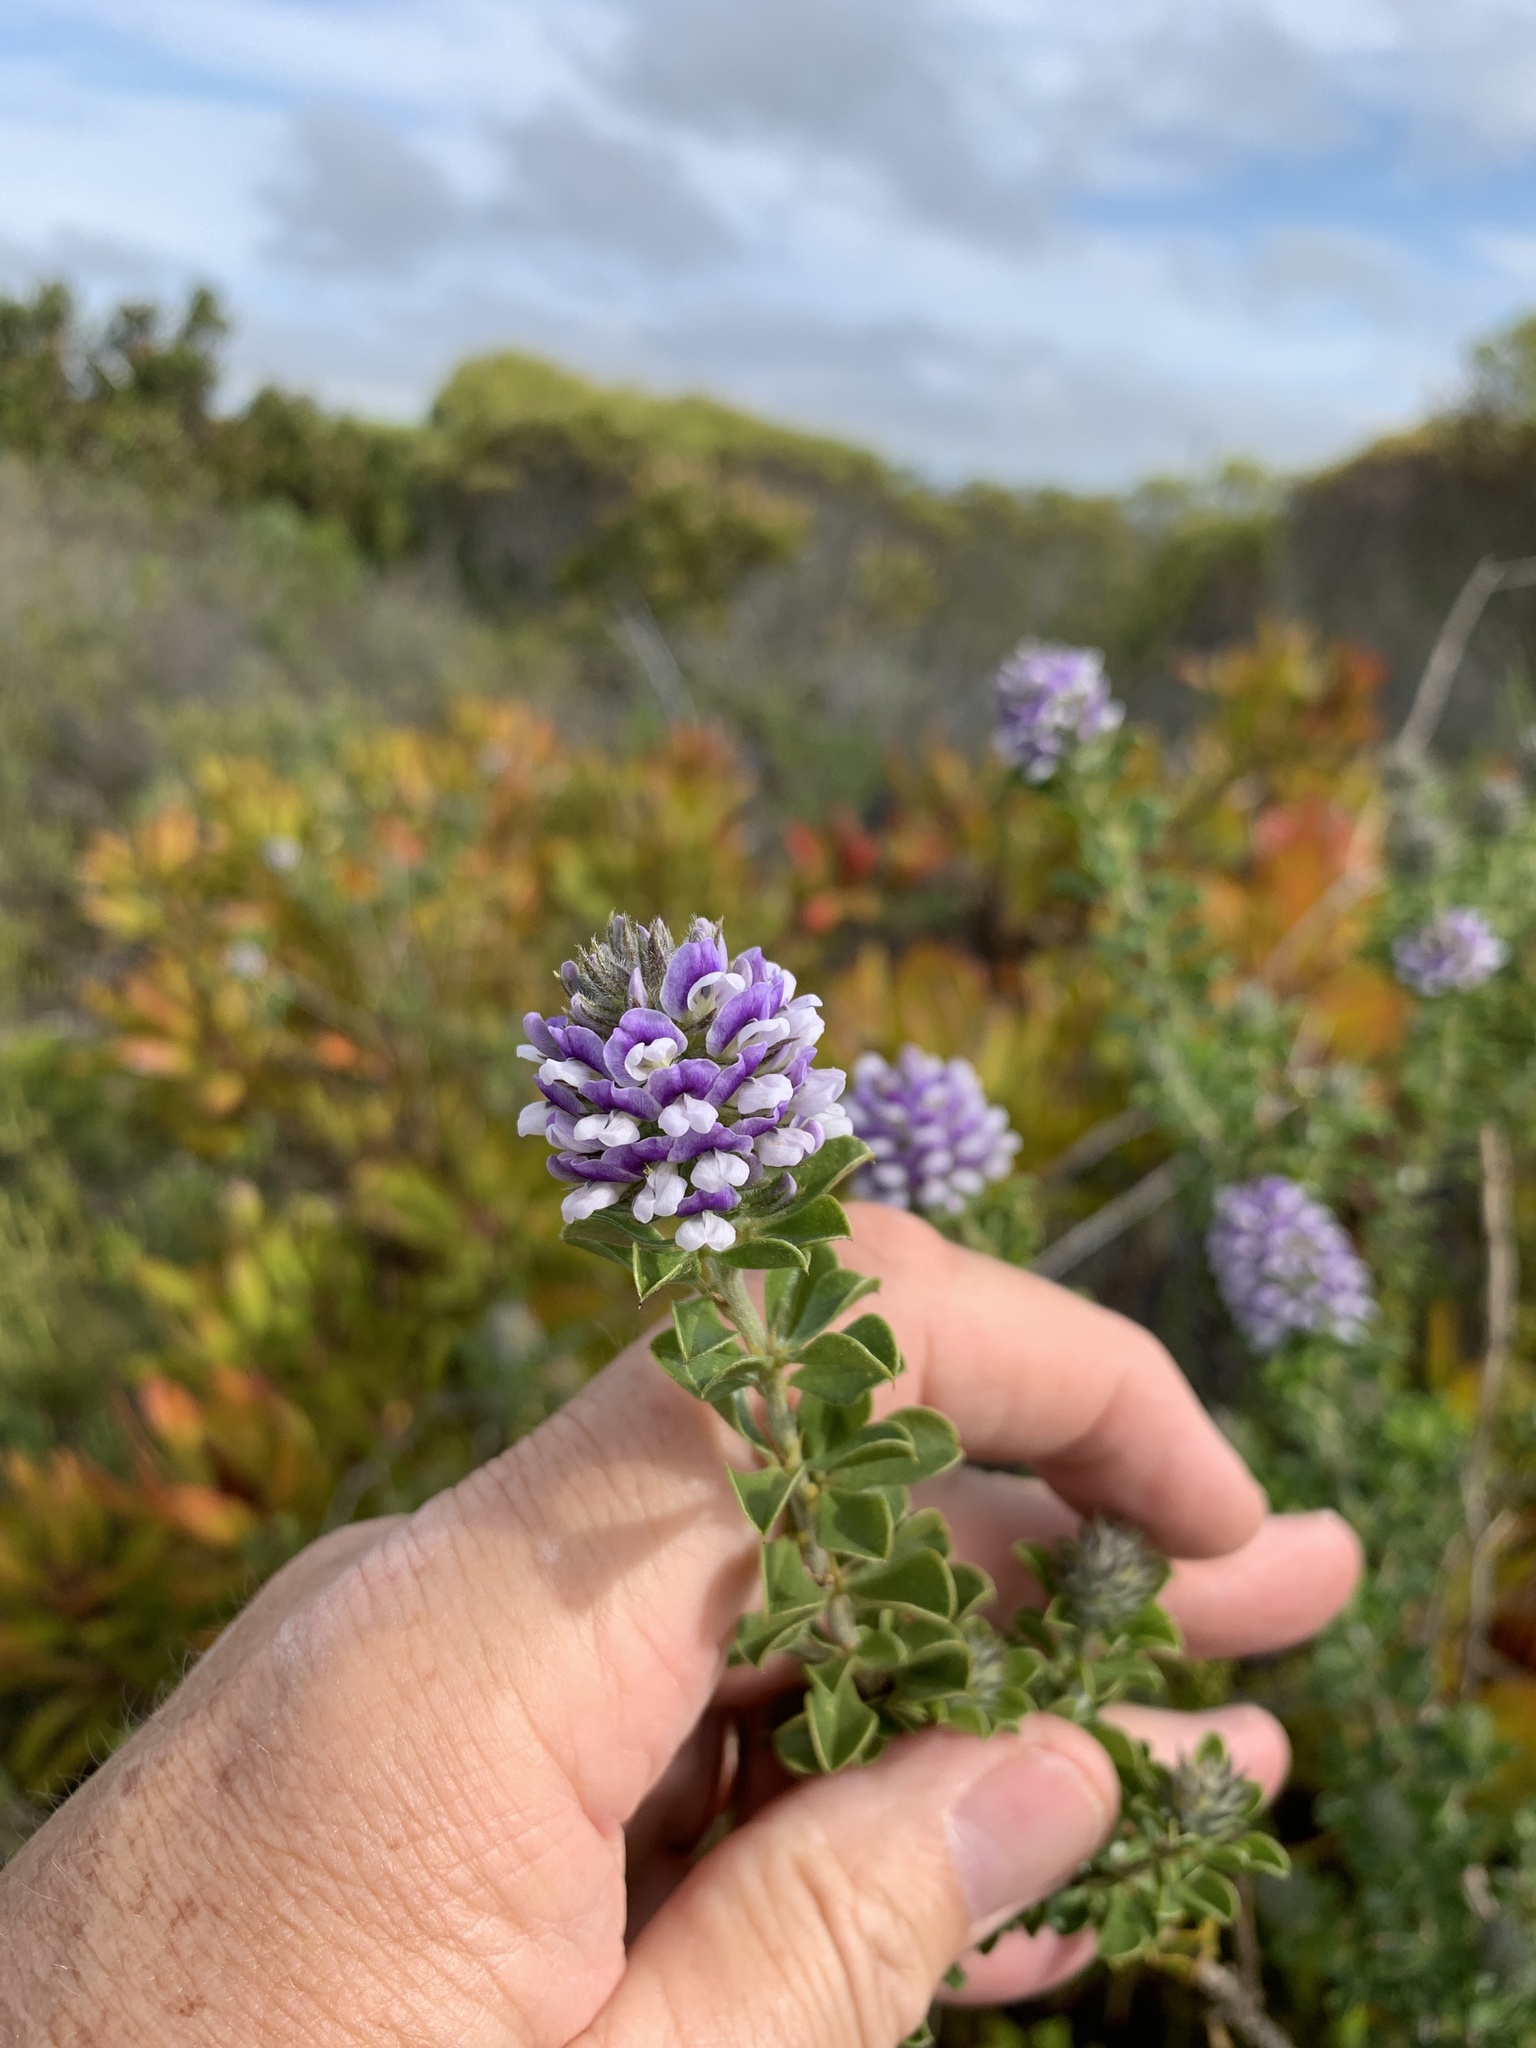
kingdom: Plantae
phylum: Tracheophyta
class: Magnoliopsida
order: Fabales
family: Fabaceae
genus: Psoralea
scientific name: Psoralea bracteolata
